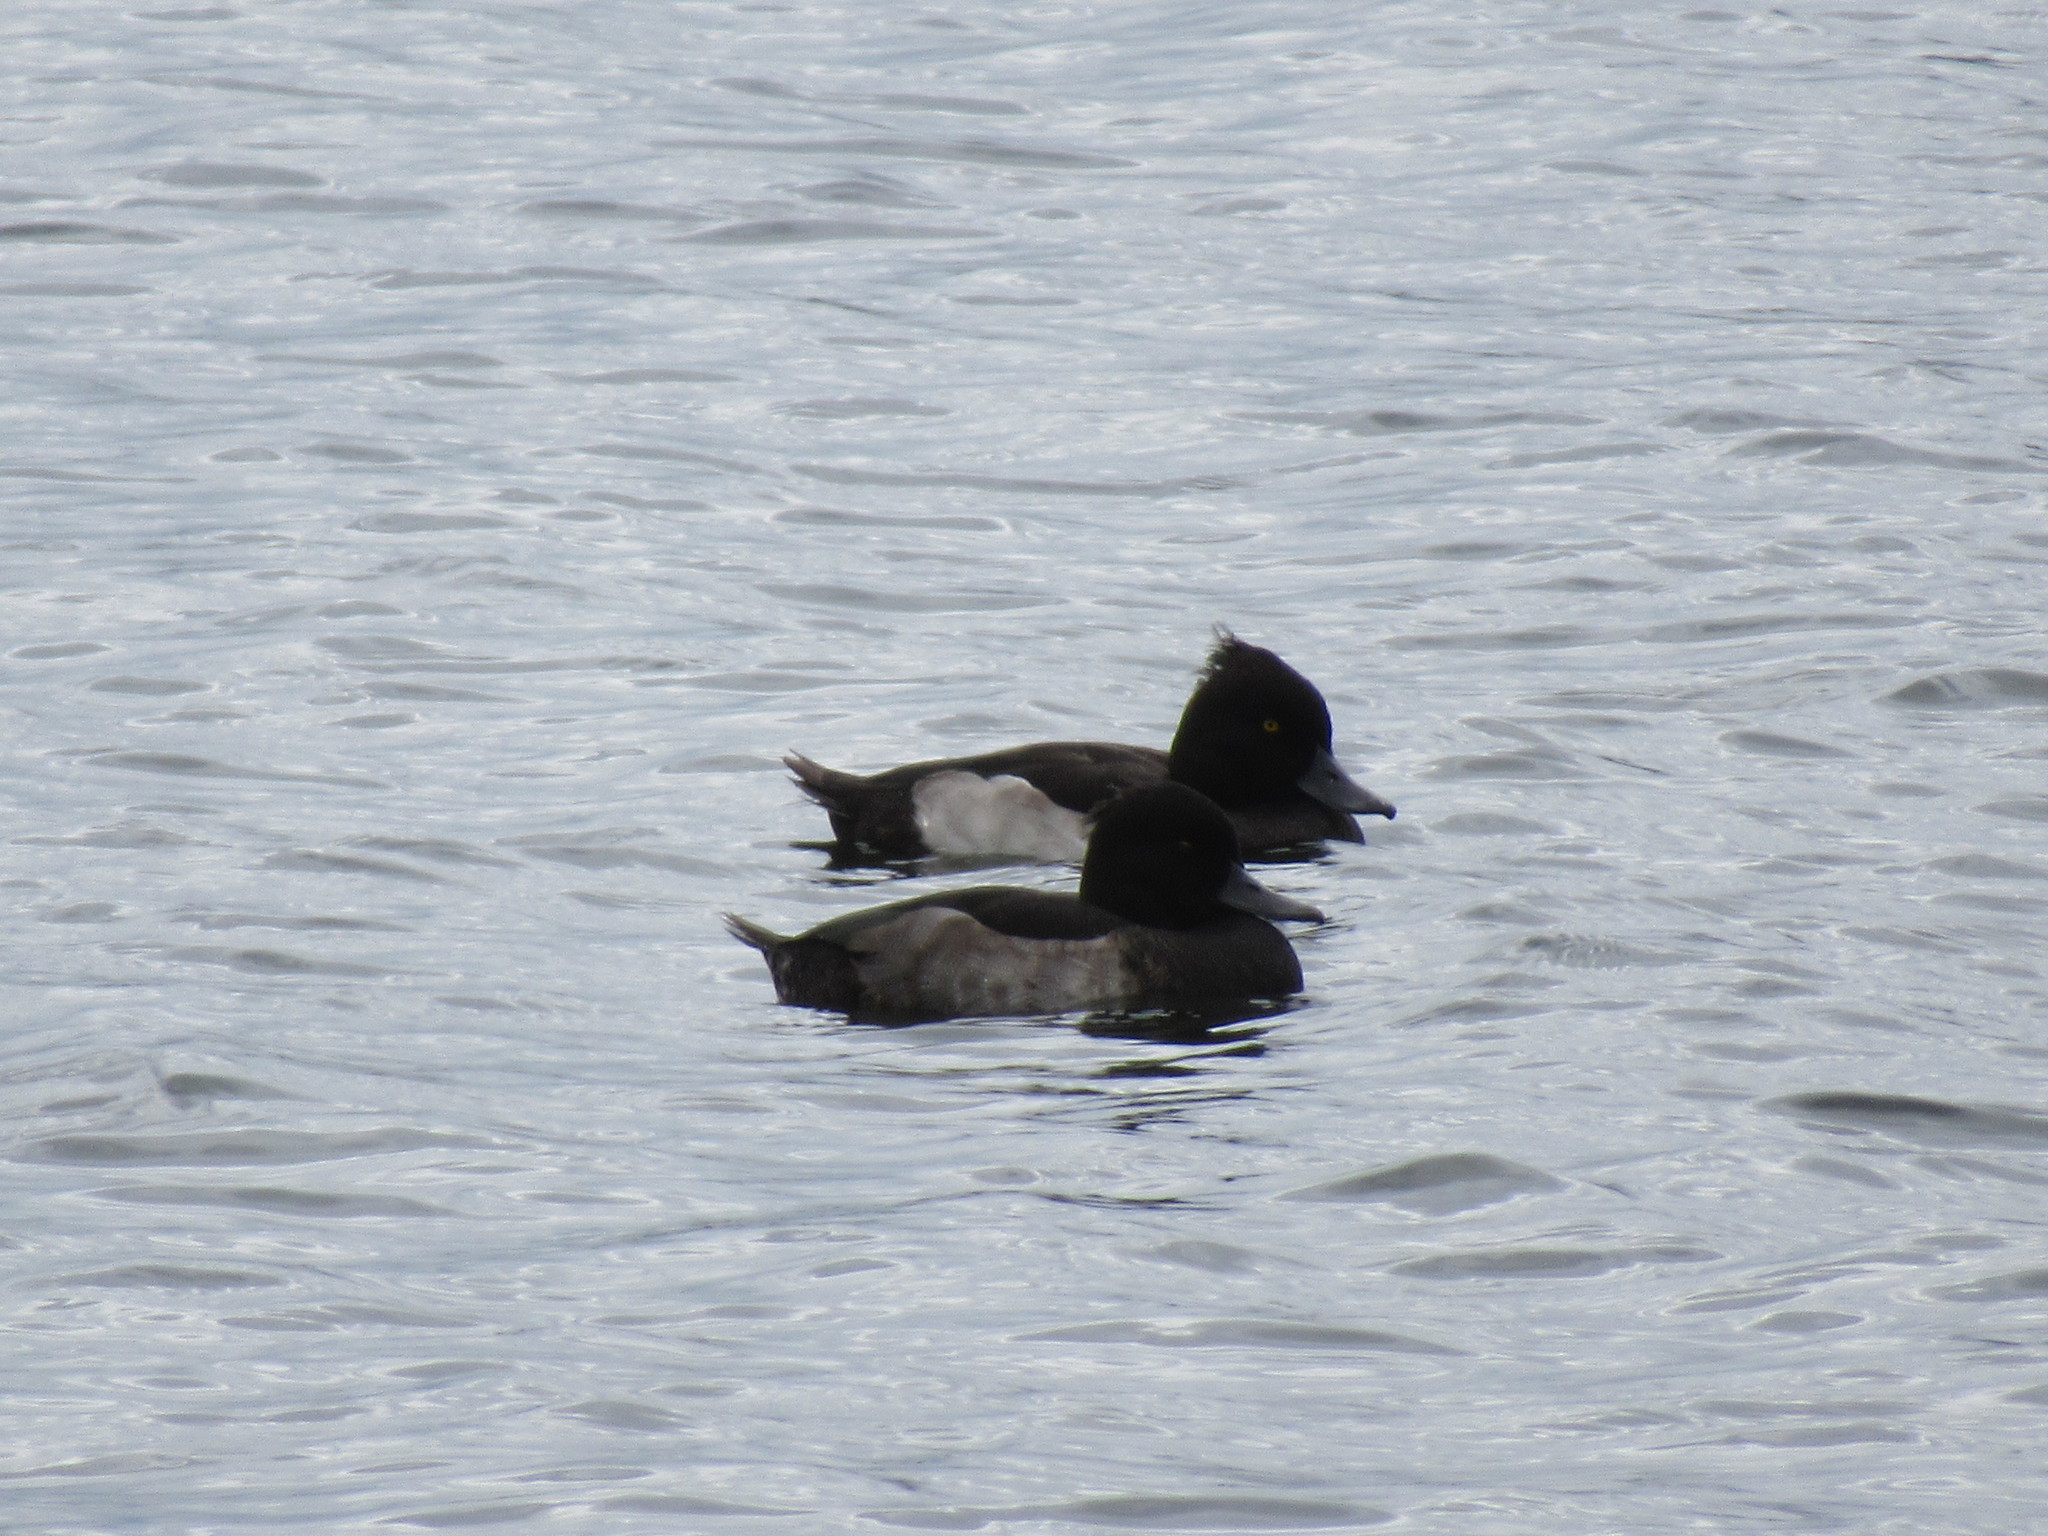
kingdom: Animalia
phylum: Chordata
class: Aves
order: Anseriformes
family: Anatidae
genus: Aythya
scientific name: Aythya fuligula
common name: Tufted duck
